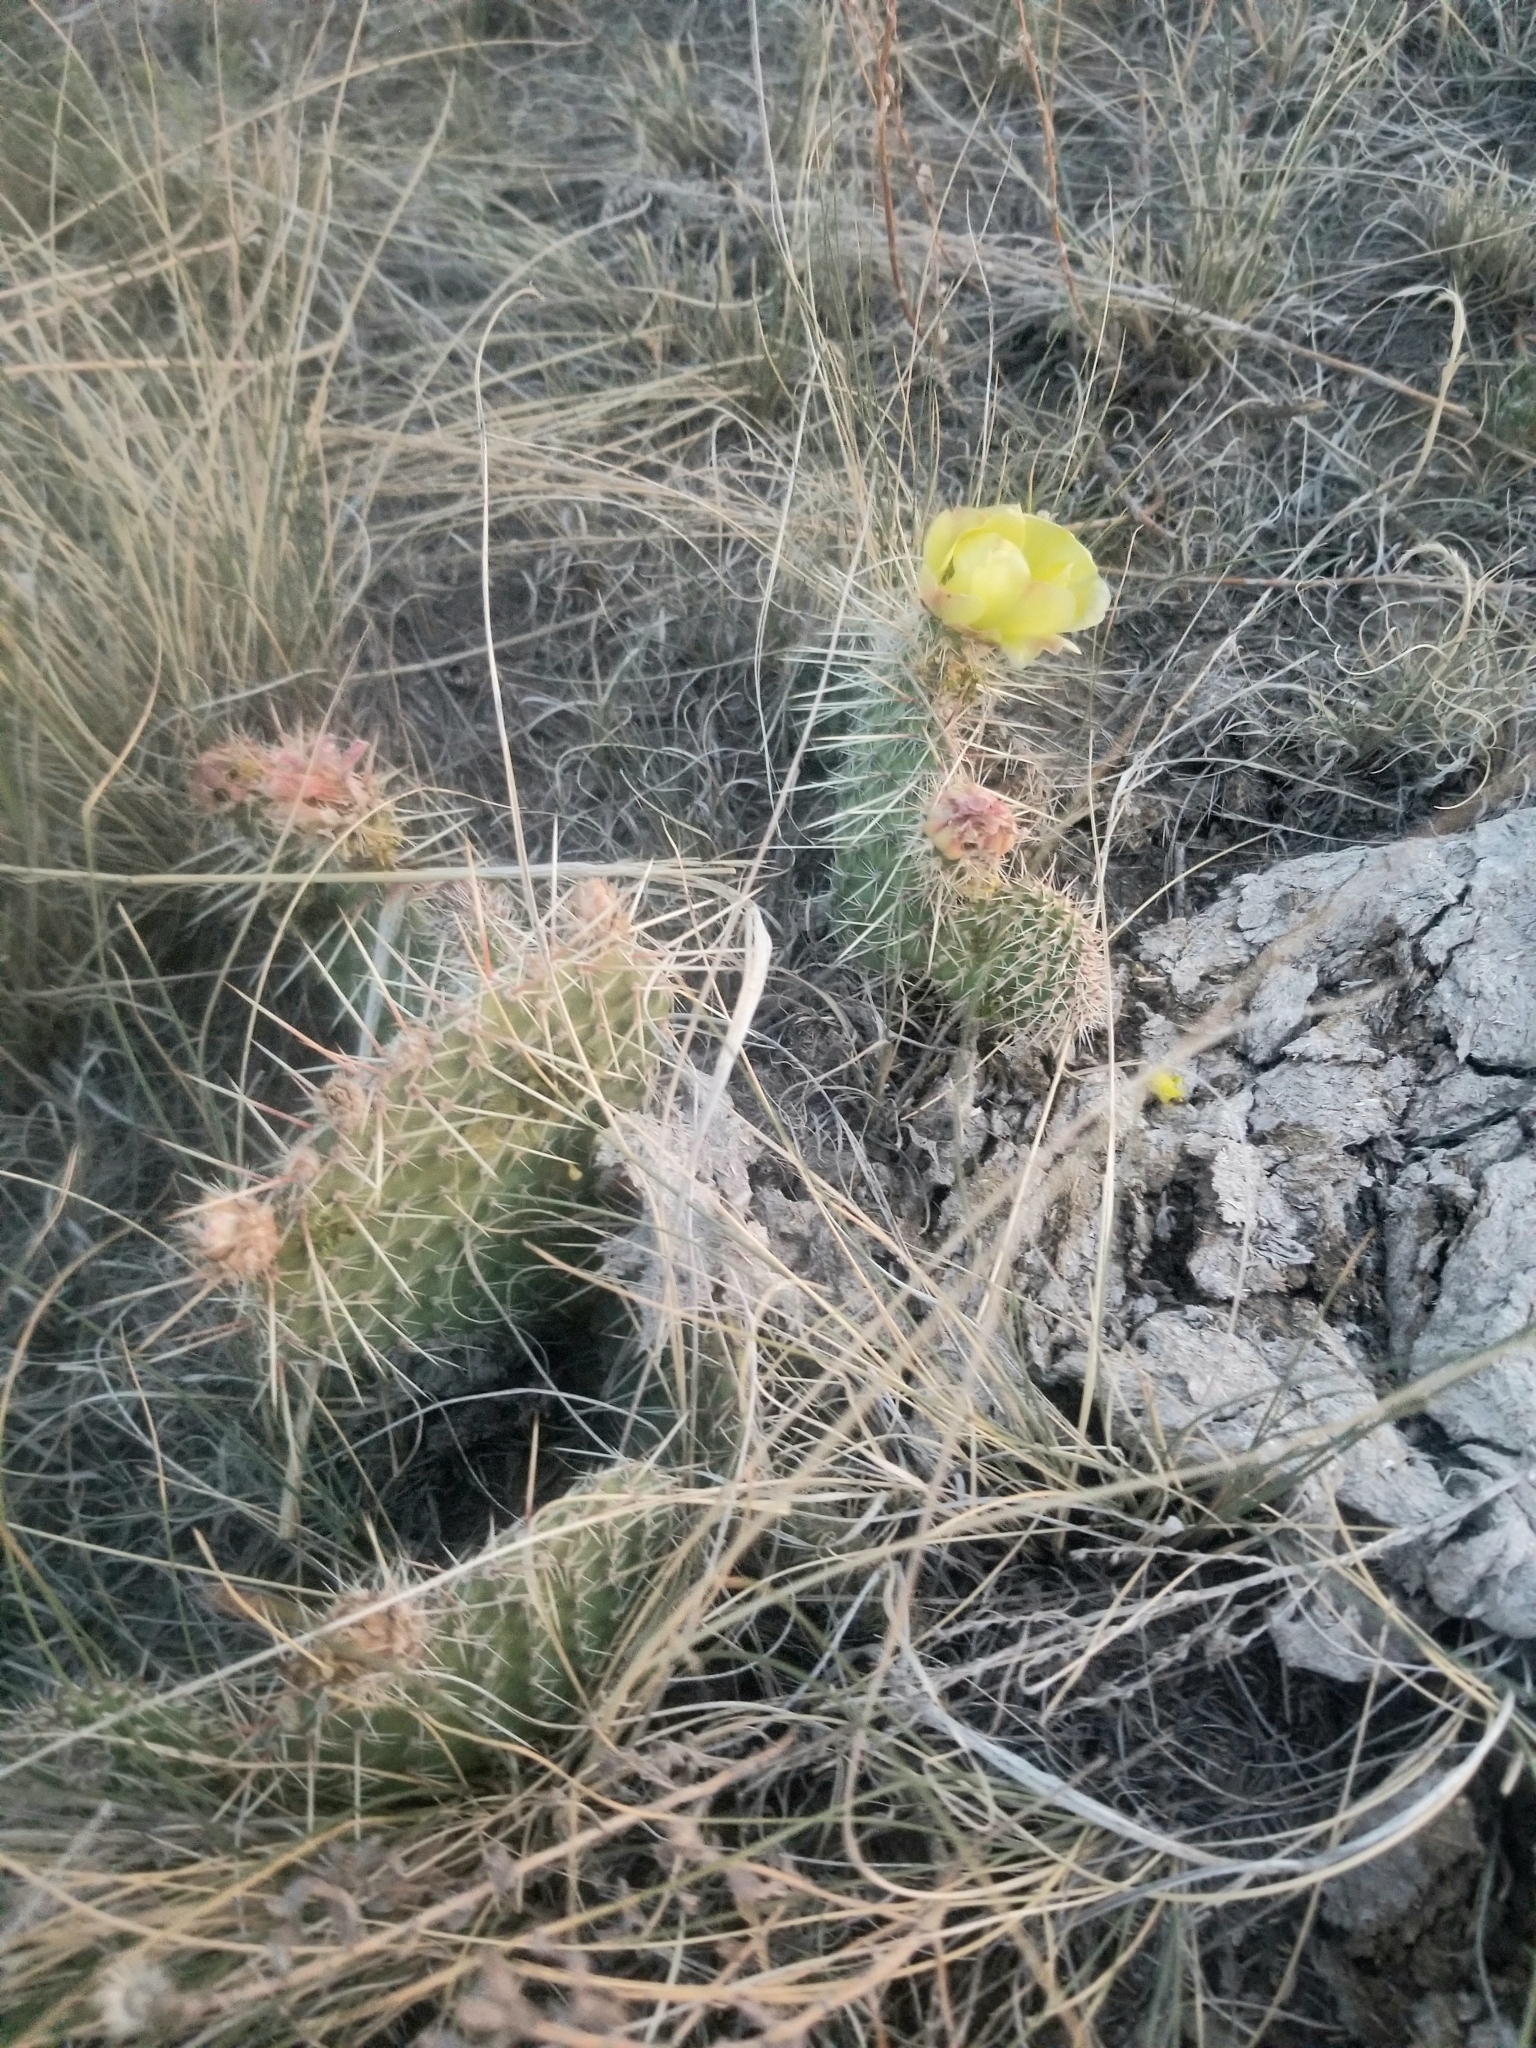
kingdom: Plantae
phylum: Tracheophyta
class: Magnoliopsida
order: Caryophyllales
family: Cactaceae
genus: Opuntia
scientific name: Opuntia polyacantha
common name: Plains prickly-pear
